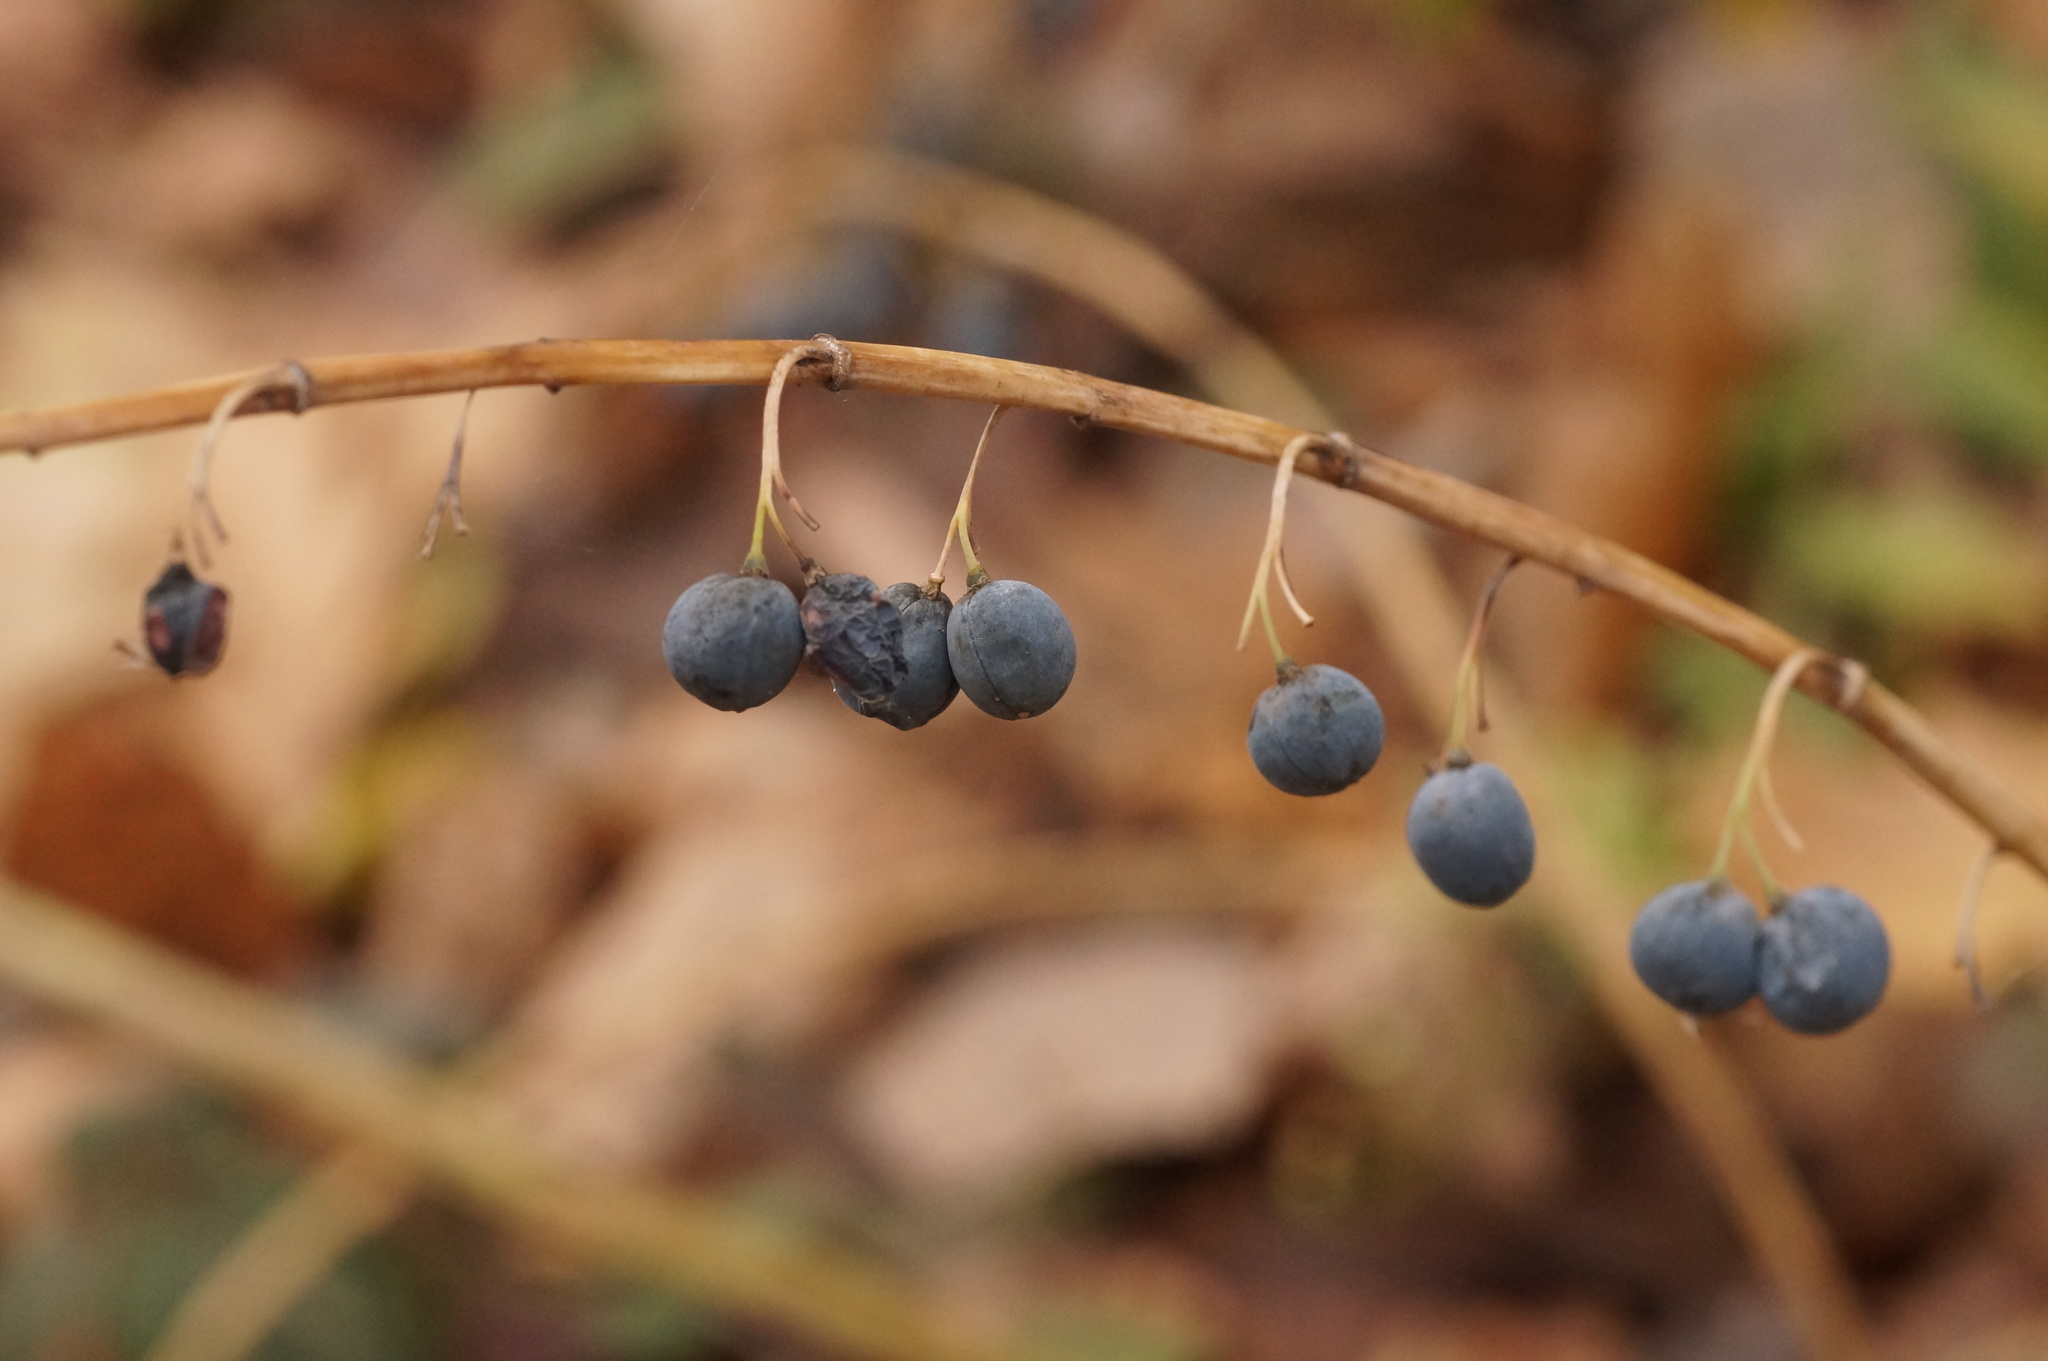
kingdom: Plantae
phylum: Tracheophyta
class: Liliopsida
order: Asparagales
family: Asparagaceae
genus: Polygonatum
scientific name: Polygonatum multiflorum
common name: Solomon's-seal
